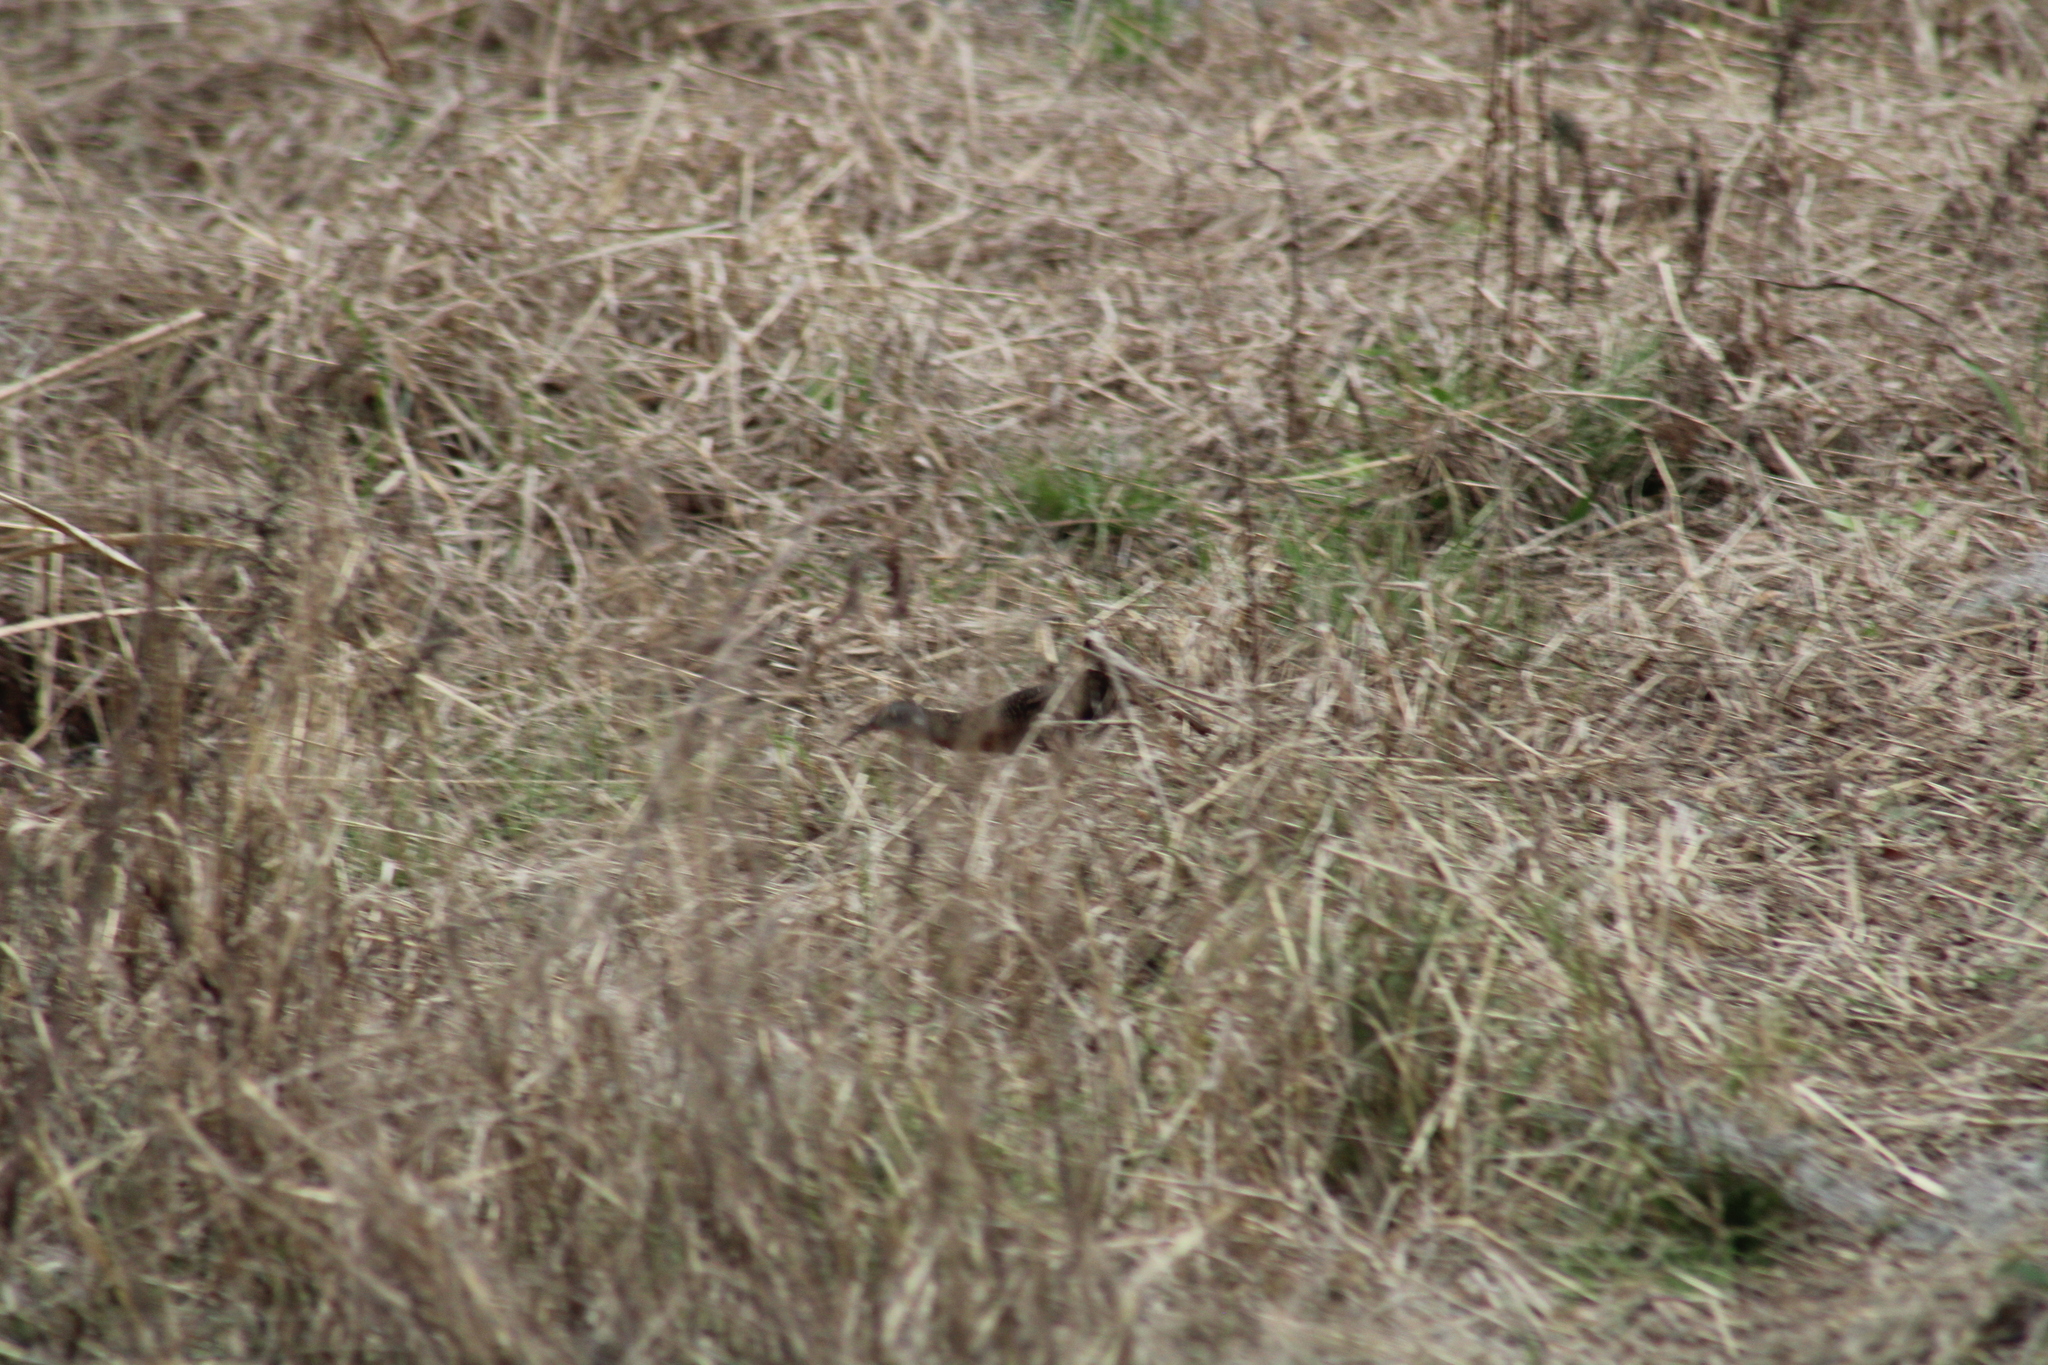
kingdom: Animalia
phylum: Chordata
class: Aves
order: Gruiformes
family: Rallidae
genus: Rallus
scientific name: Rallus limicola
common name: Virginia rail
